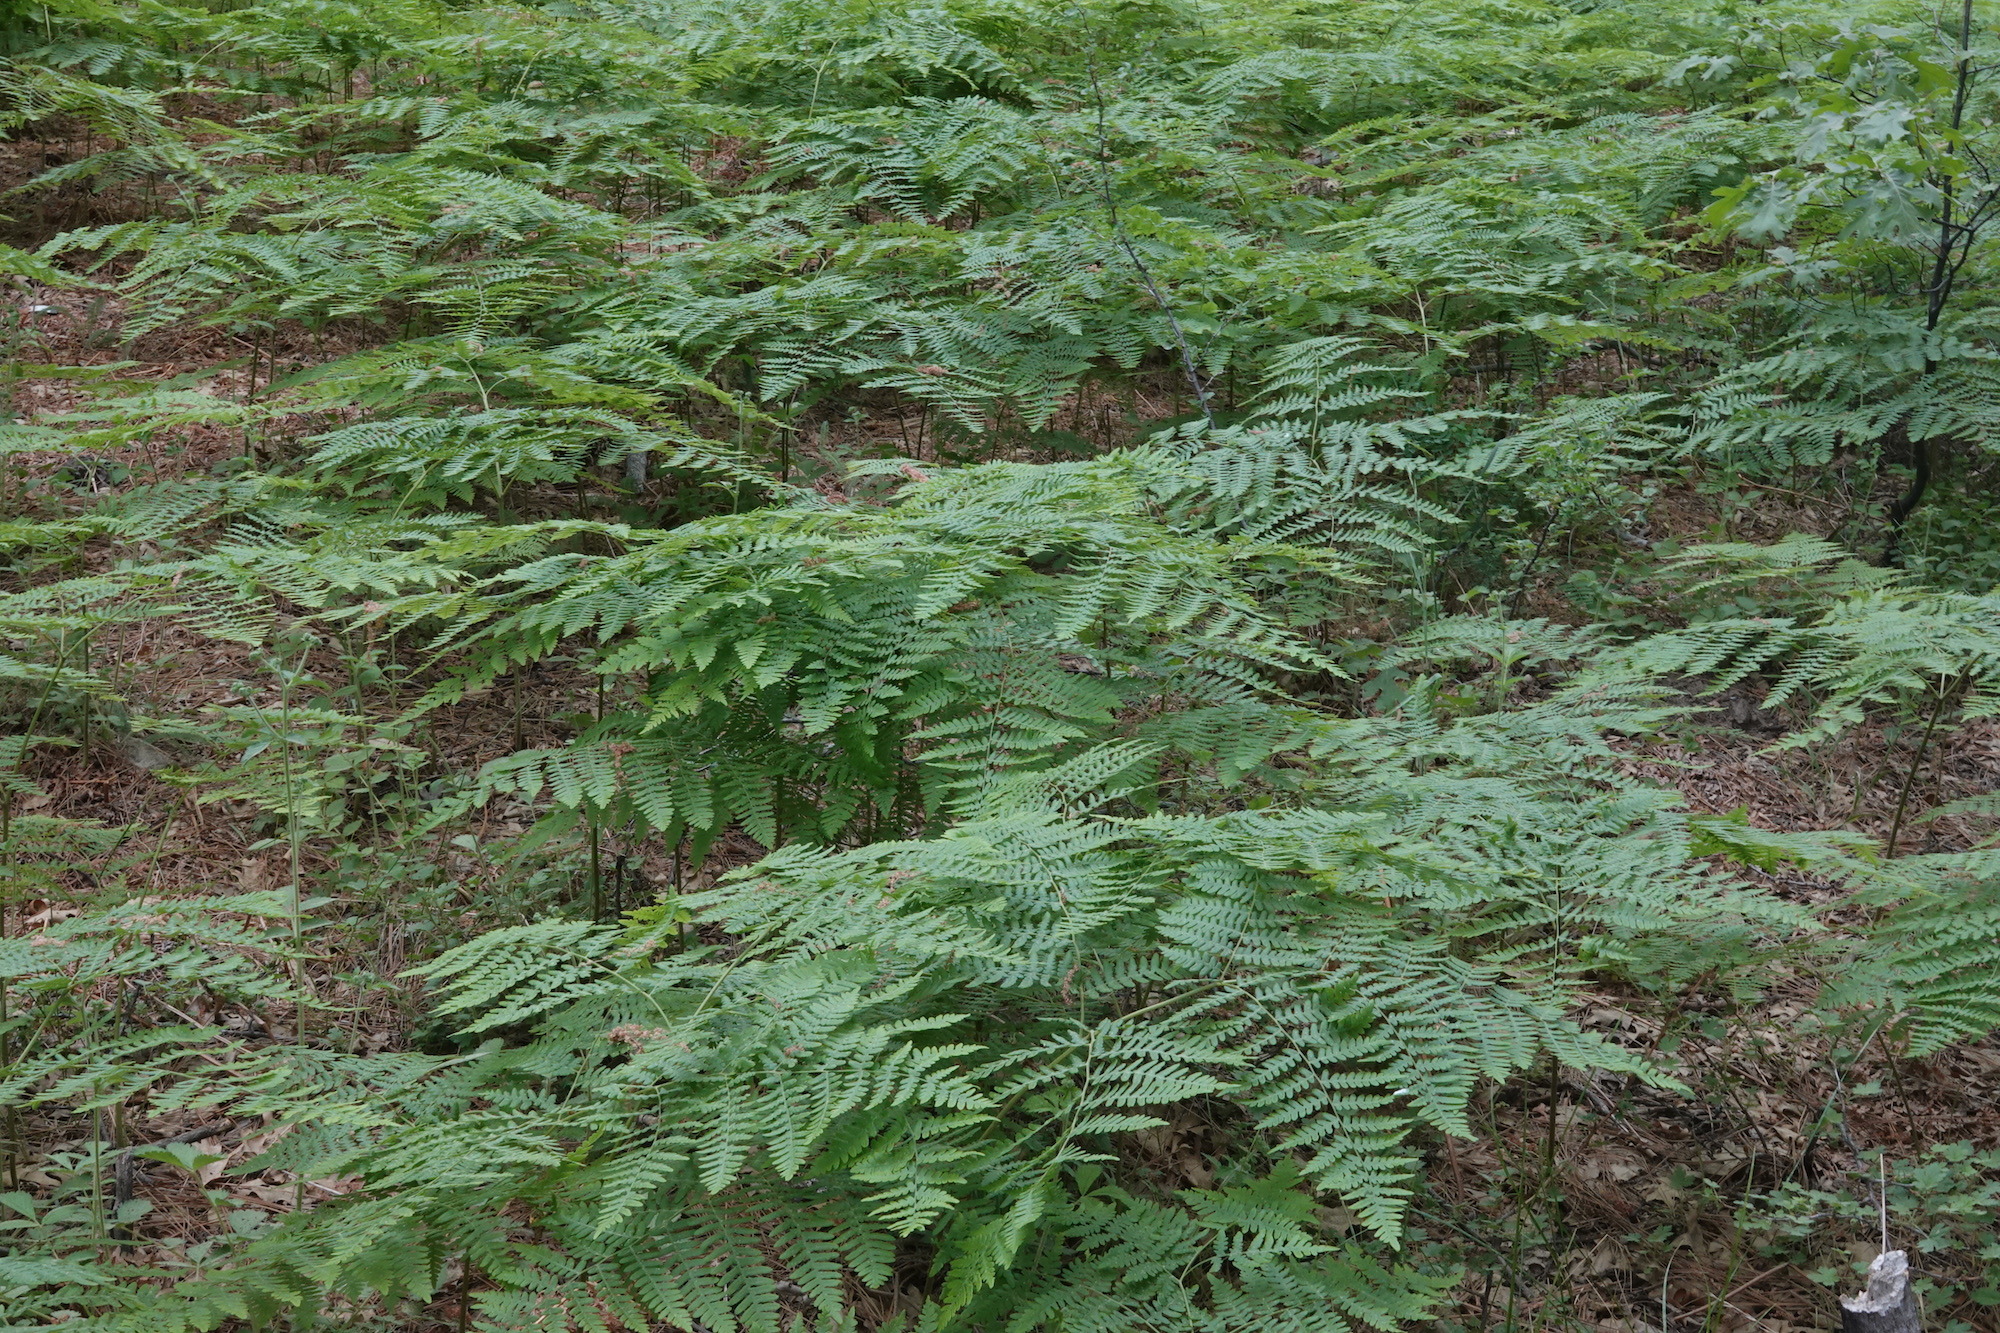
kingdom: Plantae
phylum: Tracheophyta
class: Polypodiopsida
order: Polypodiales
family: Dennstaedtiaceae
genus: Pteridium
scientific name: Pteridium aquilinum
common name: Bracken
